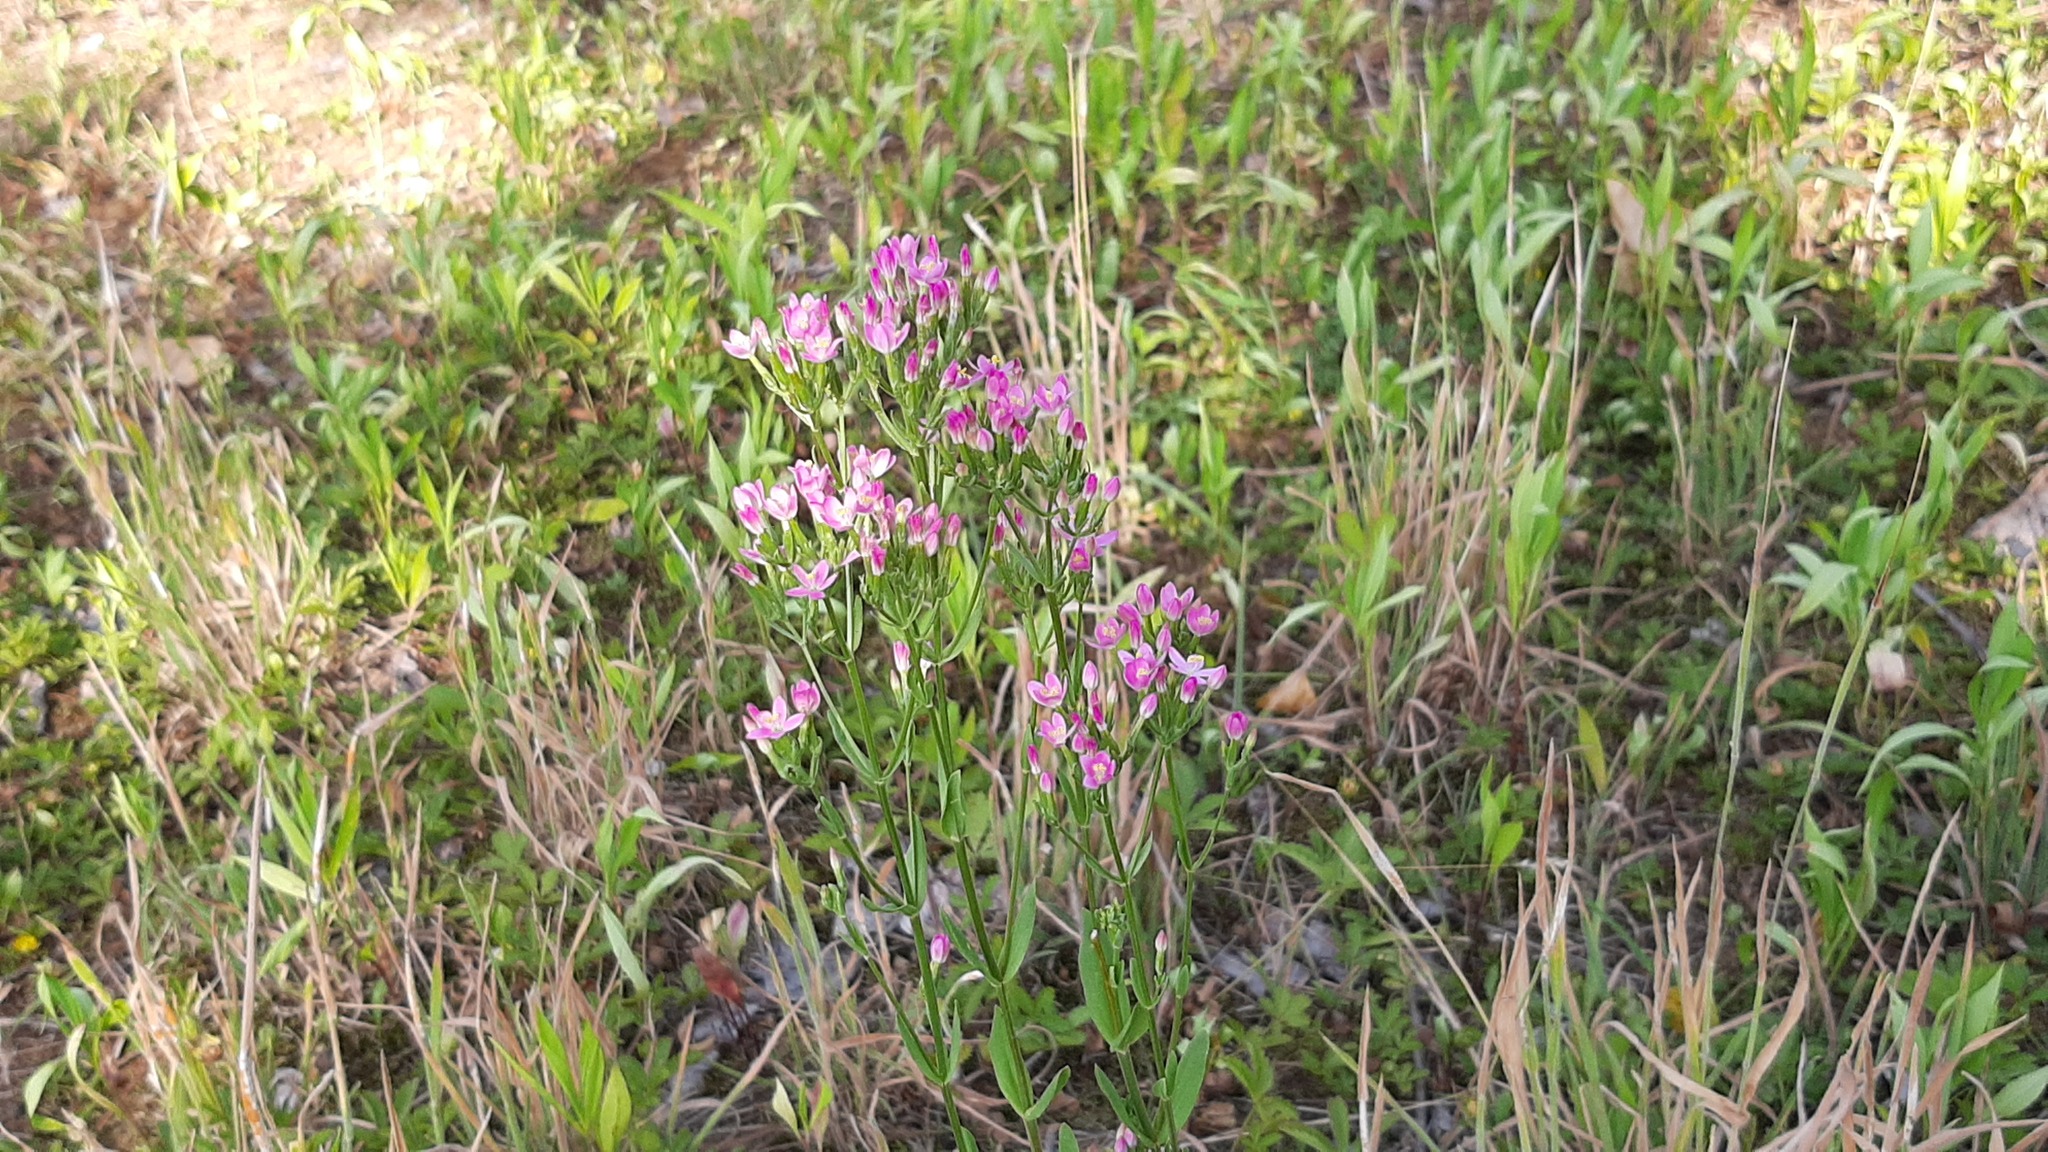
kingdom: Plantae
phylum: Tracheophyta
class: Magnoliopsida
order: Gentianales
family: Gentianaceae
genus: Centaurium
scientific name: Centaurium erythraea
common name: Common centaury
